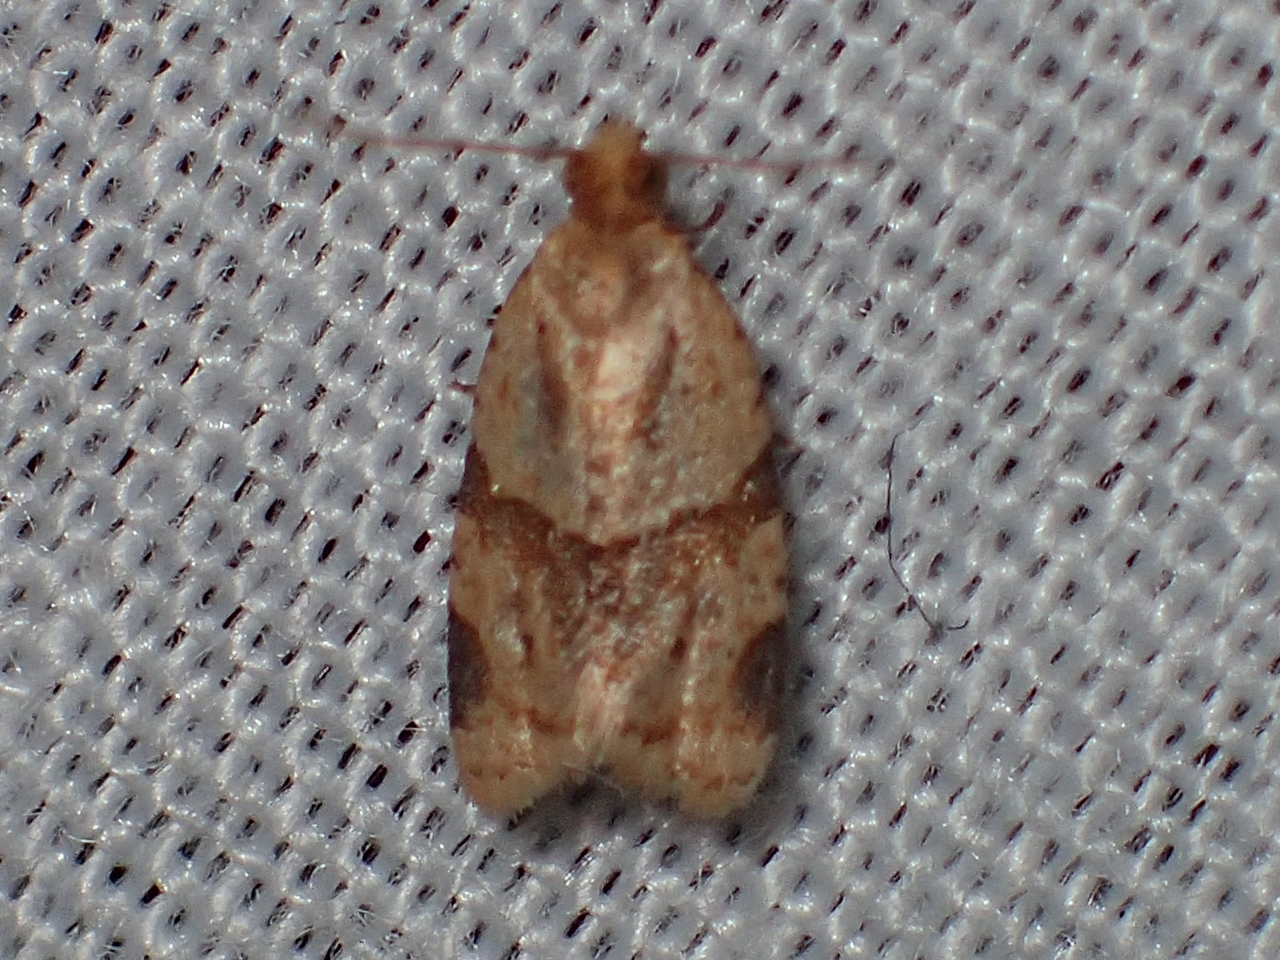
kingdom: Animalia
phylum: Arthropoda
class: Insecta
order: Lepidoptera
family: Tortricidae
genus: Clepsis
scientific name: Clepsis peritana
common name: Garden tortrix
